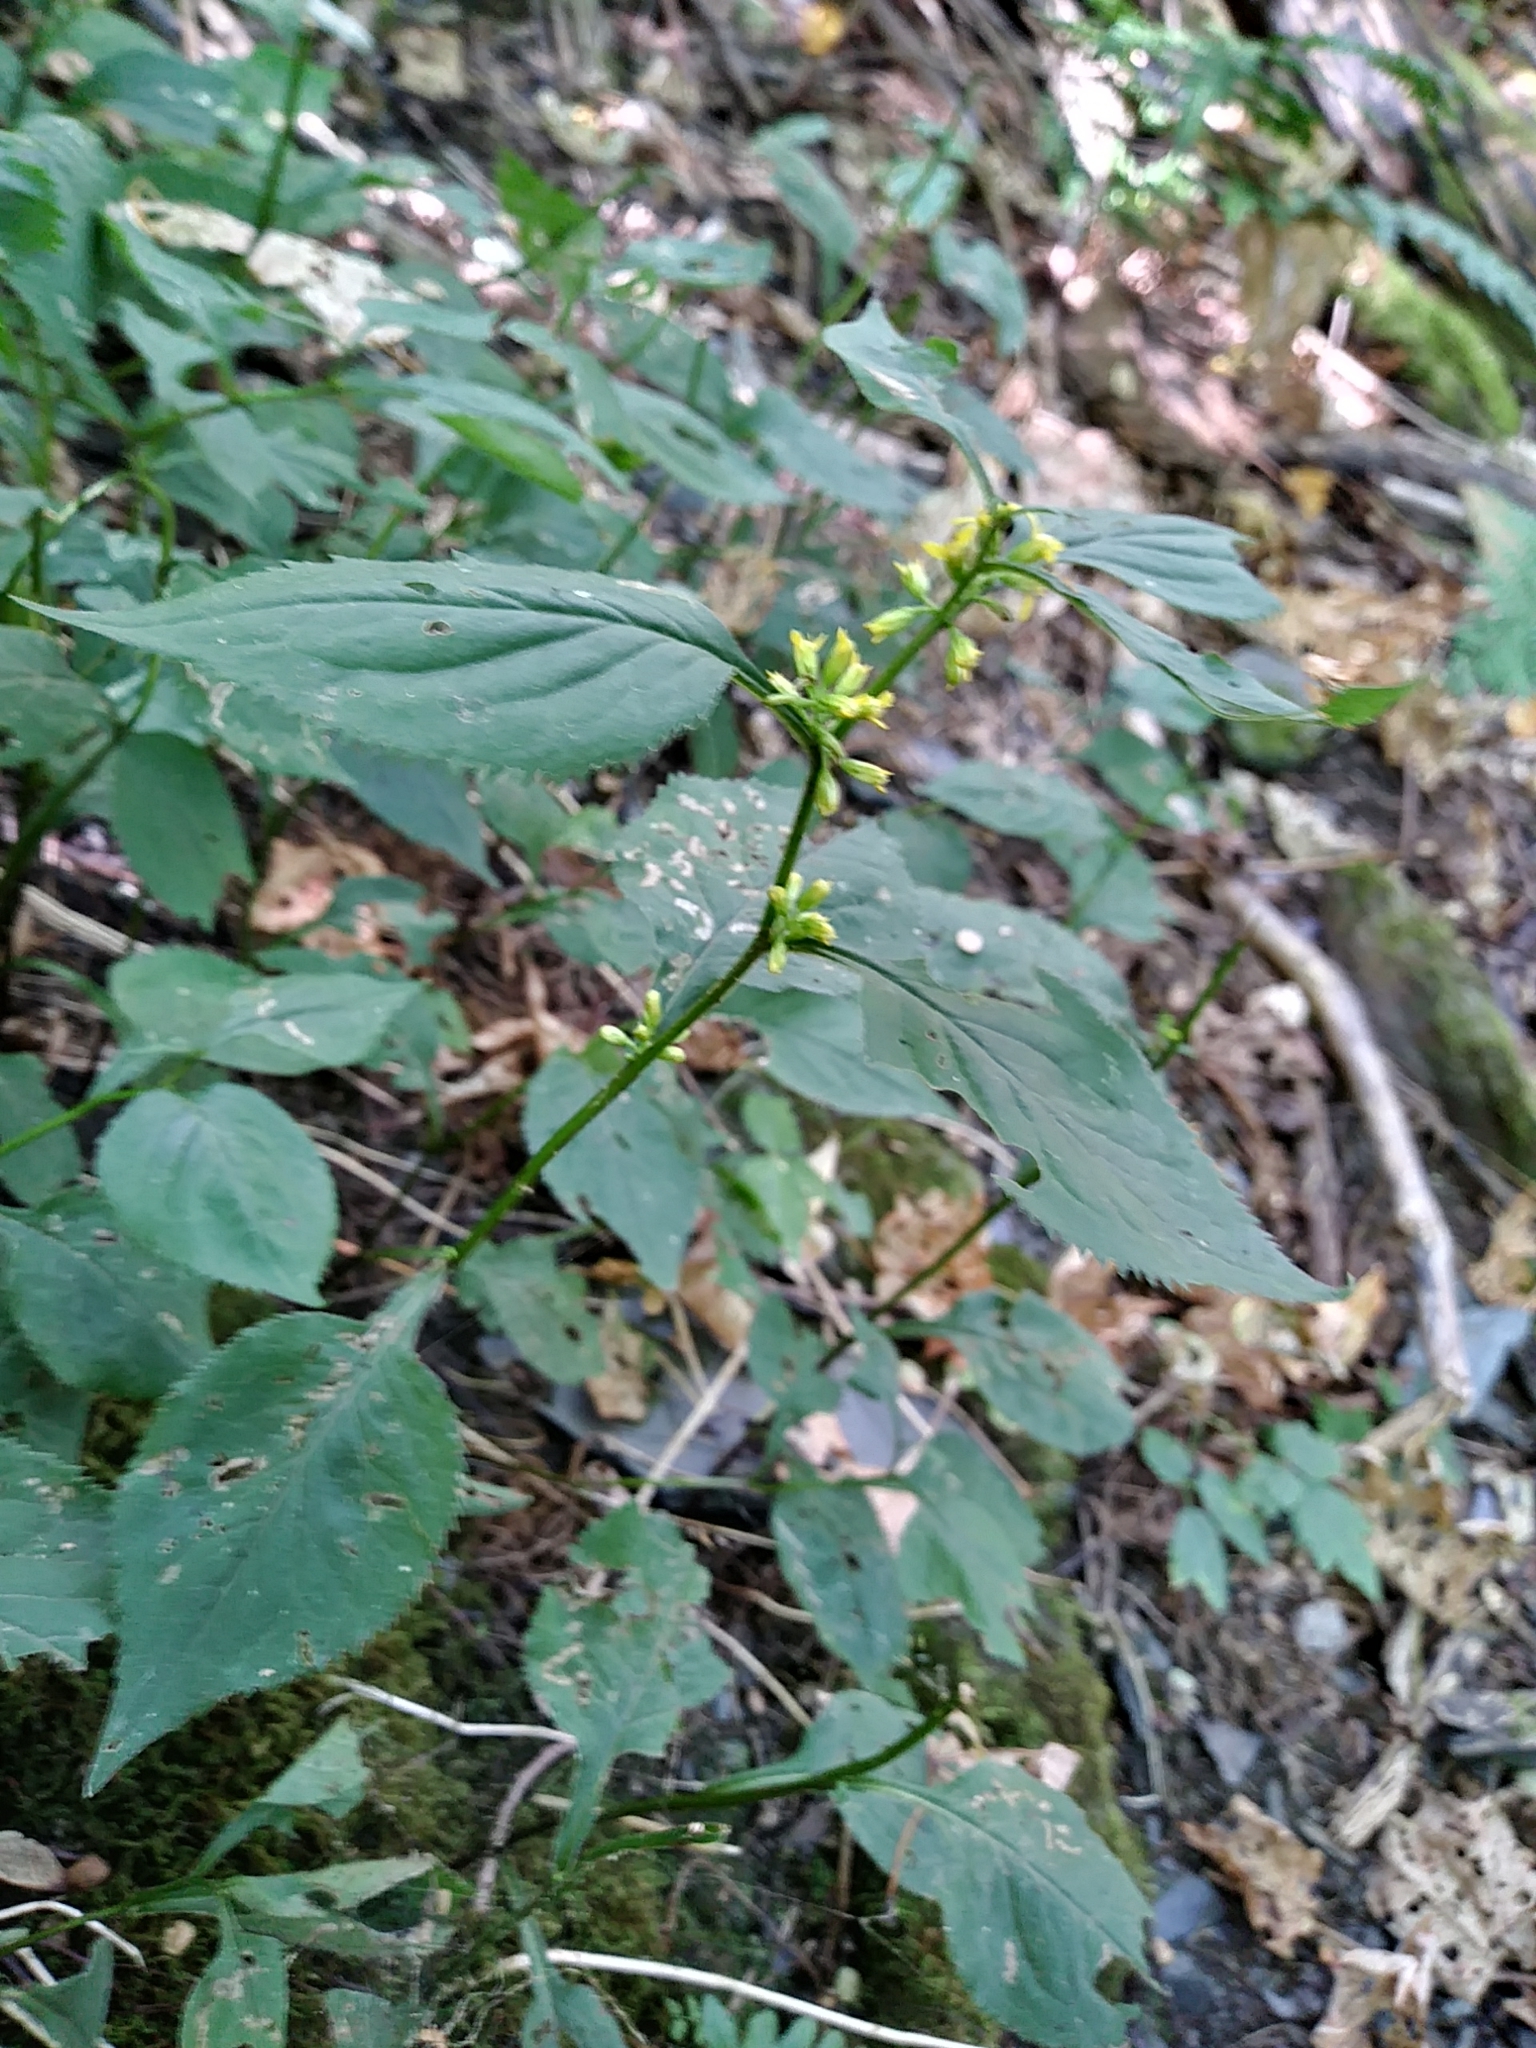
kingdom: Plantae
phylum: Tracheophyta
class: Magnoliopsida
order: Asterales
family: Asteraceae
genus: Solidago
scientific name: Solidago flexicaulis
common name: Zig-zag goldenrod
